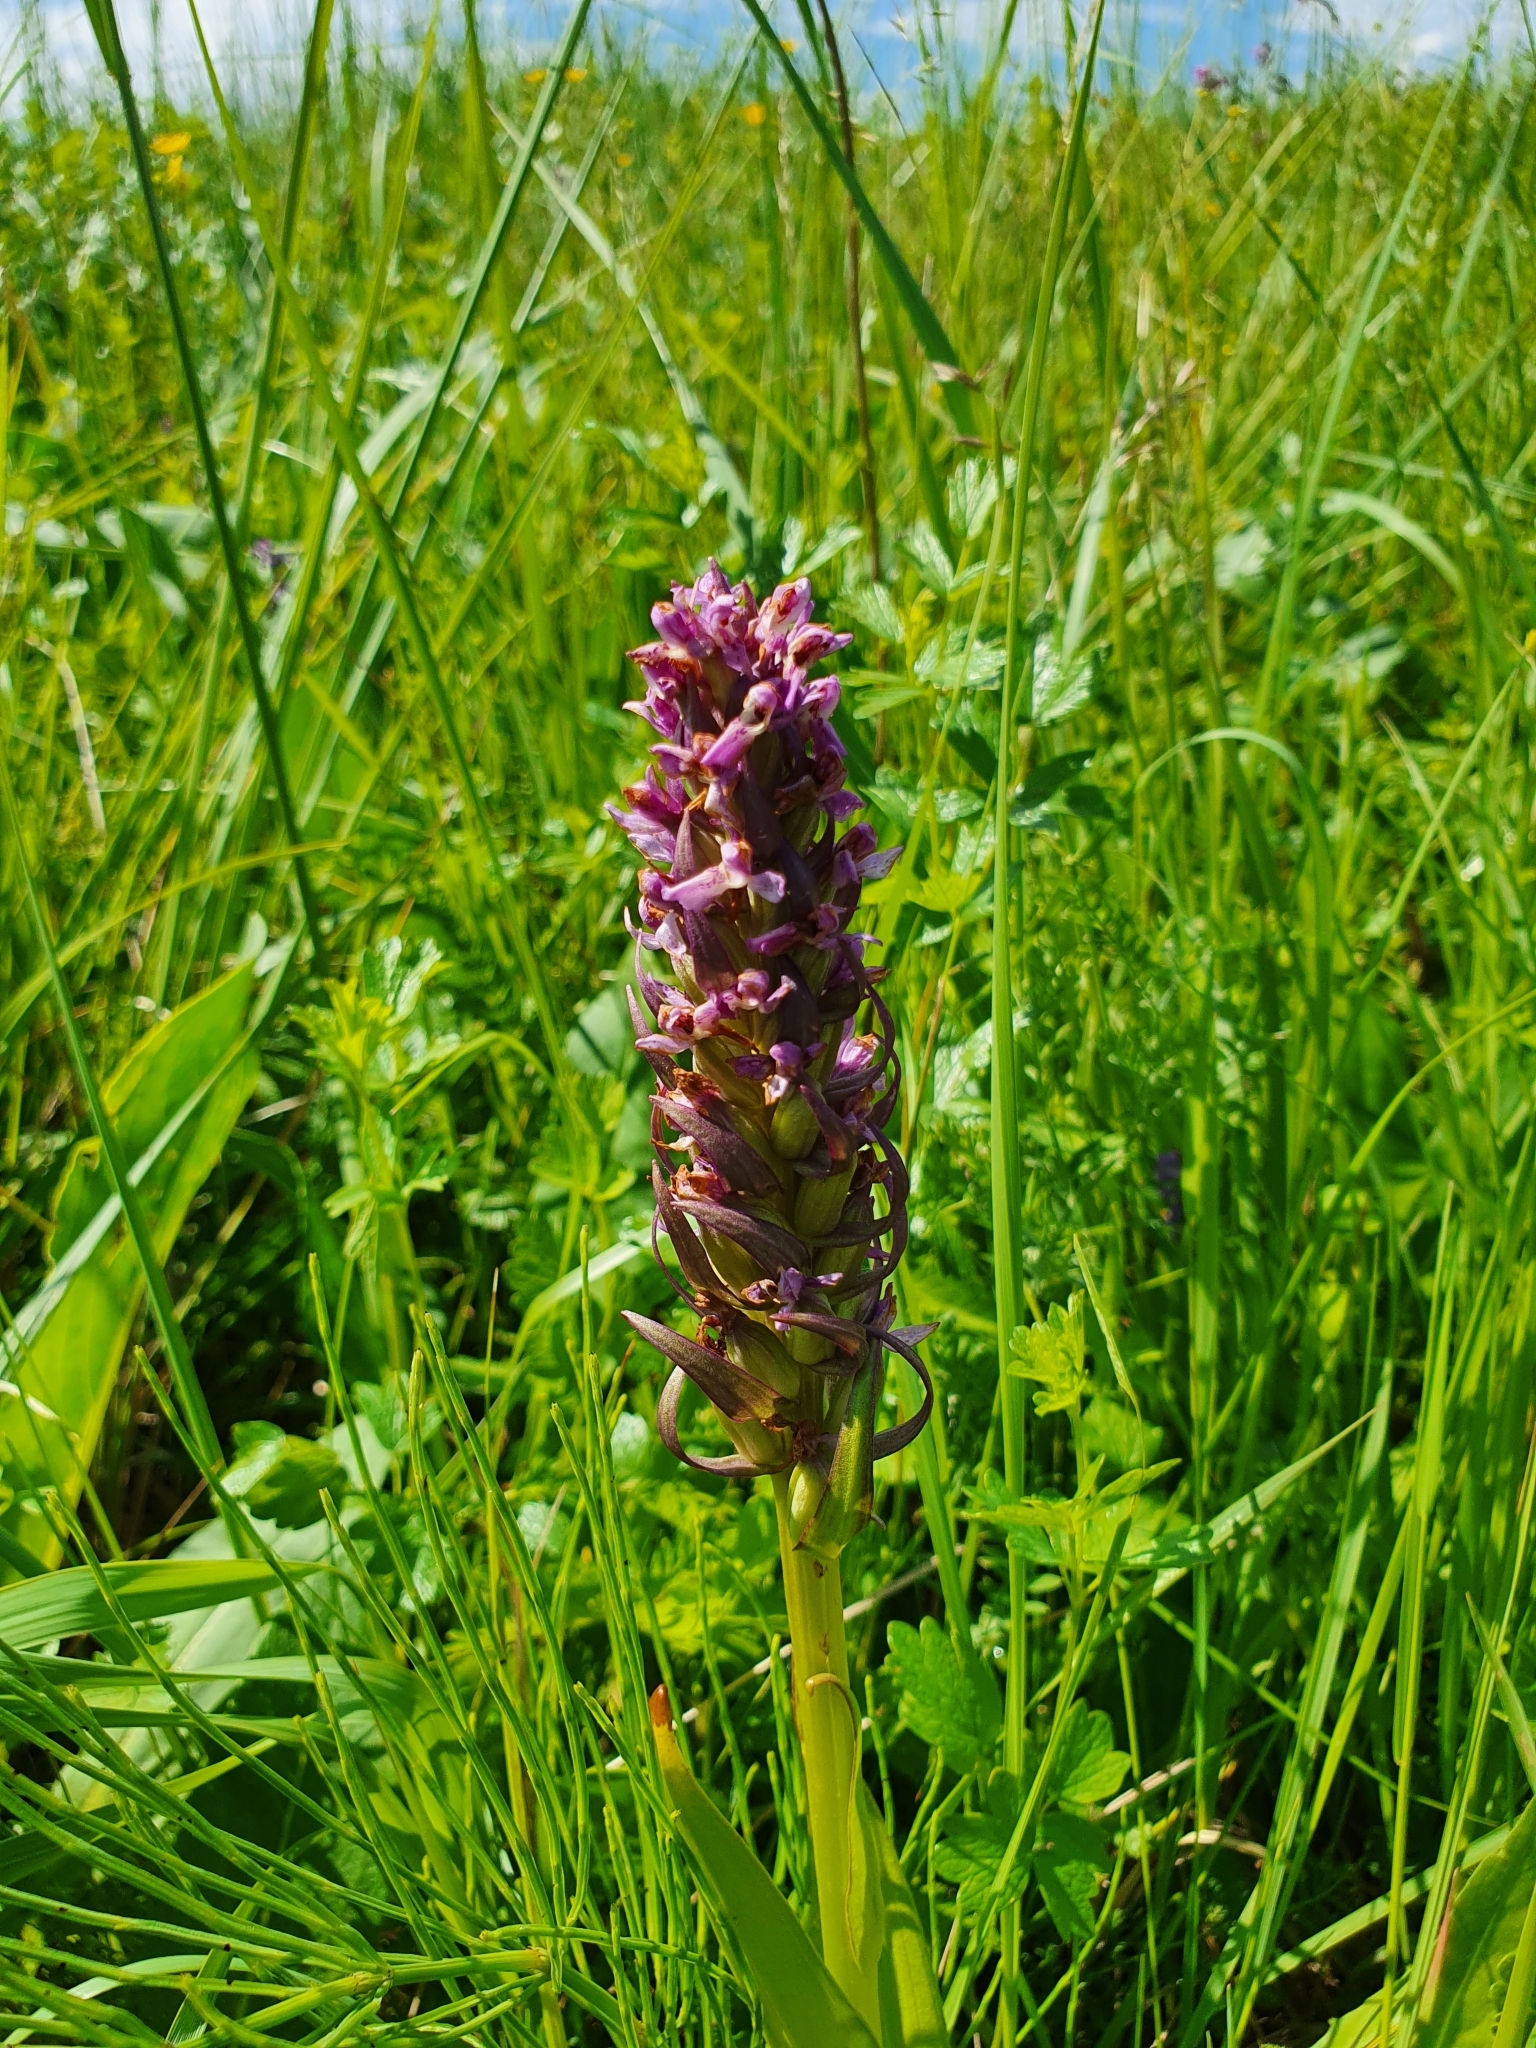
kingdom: Plantae
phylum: Tracheophyta
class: Liliopsida
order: Asparagales
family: Orchidaceae
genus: Dactylorhiza
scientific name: Dactylorhiza incarnata
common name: Early marsh-orchid
